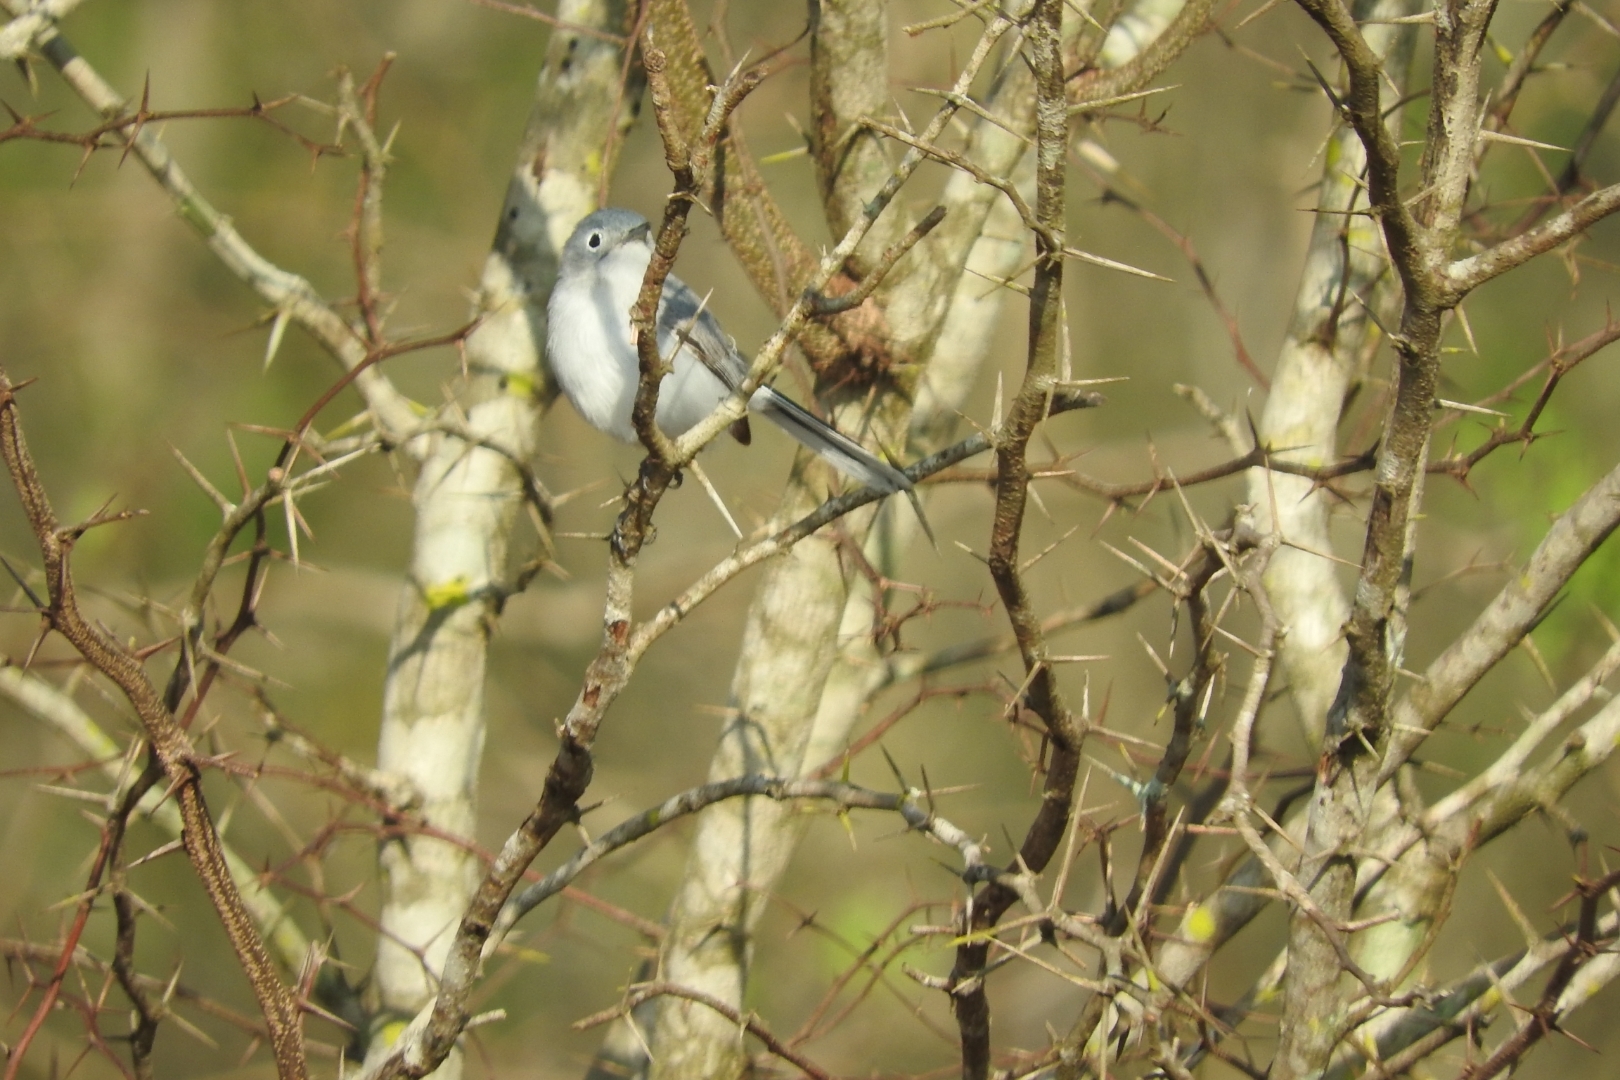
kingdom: Animalia
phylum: Chordata
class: Aves
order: Passeriformes
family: Polioptilidae
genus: Polioptila
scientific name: Polioptila caerulea
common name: Blue-gray gnatcatcher
